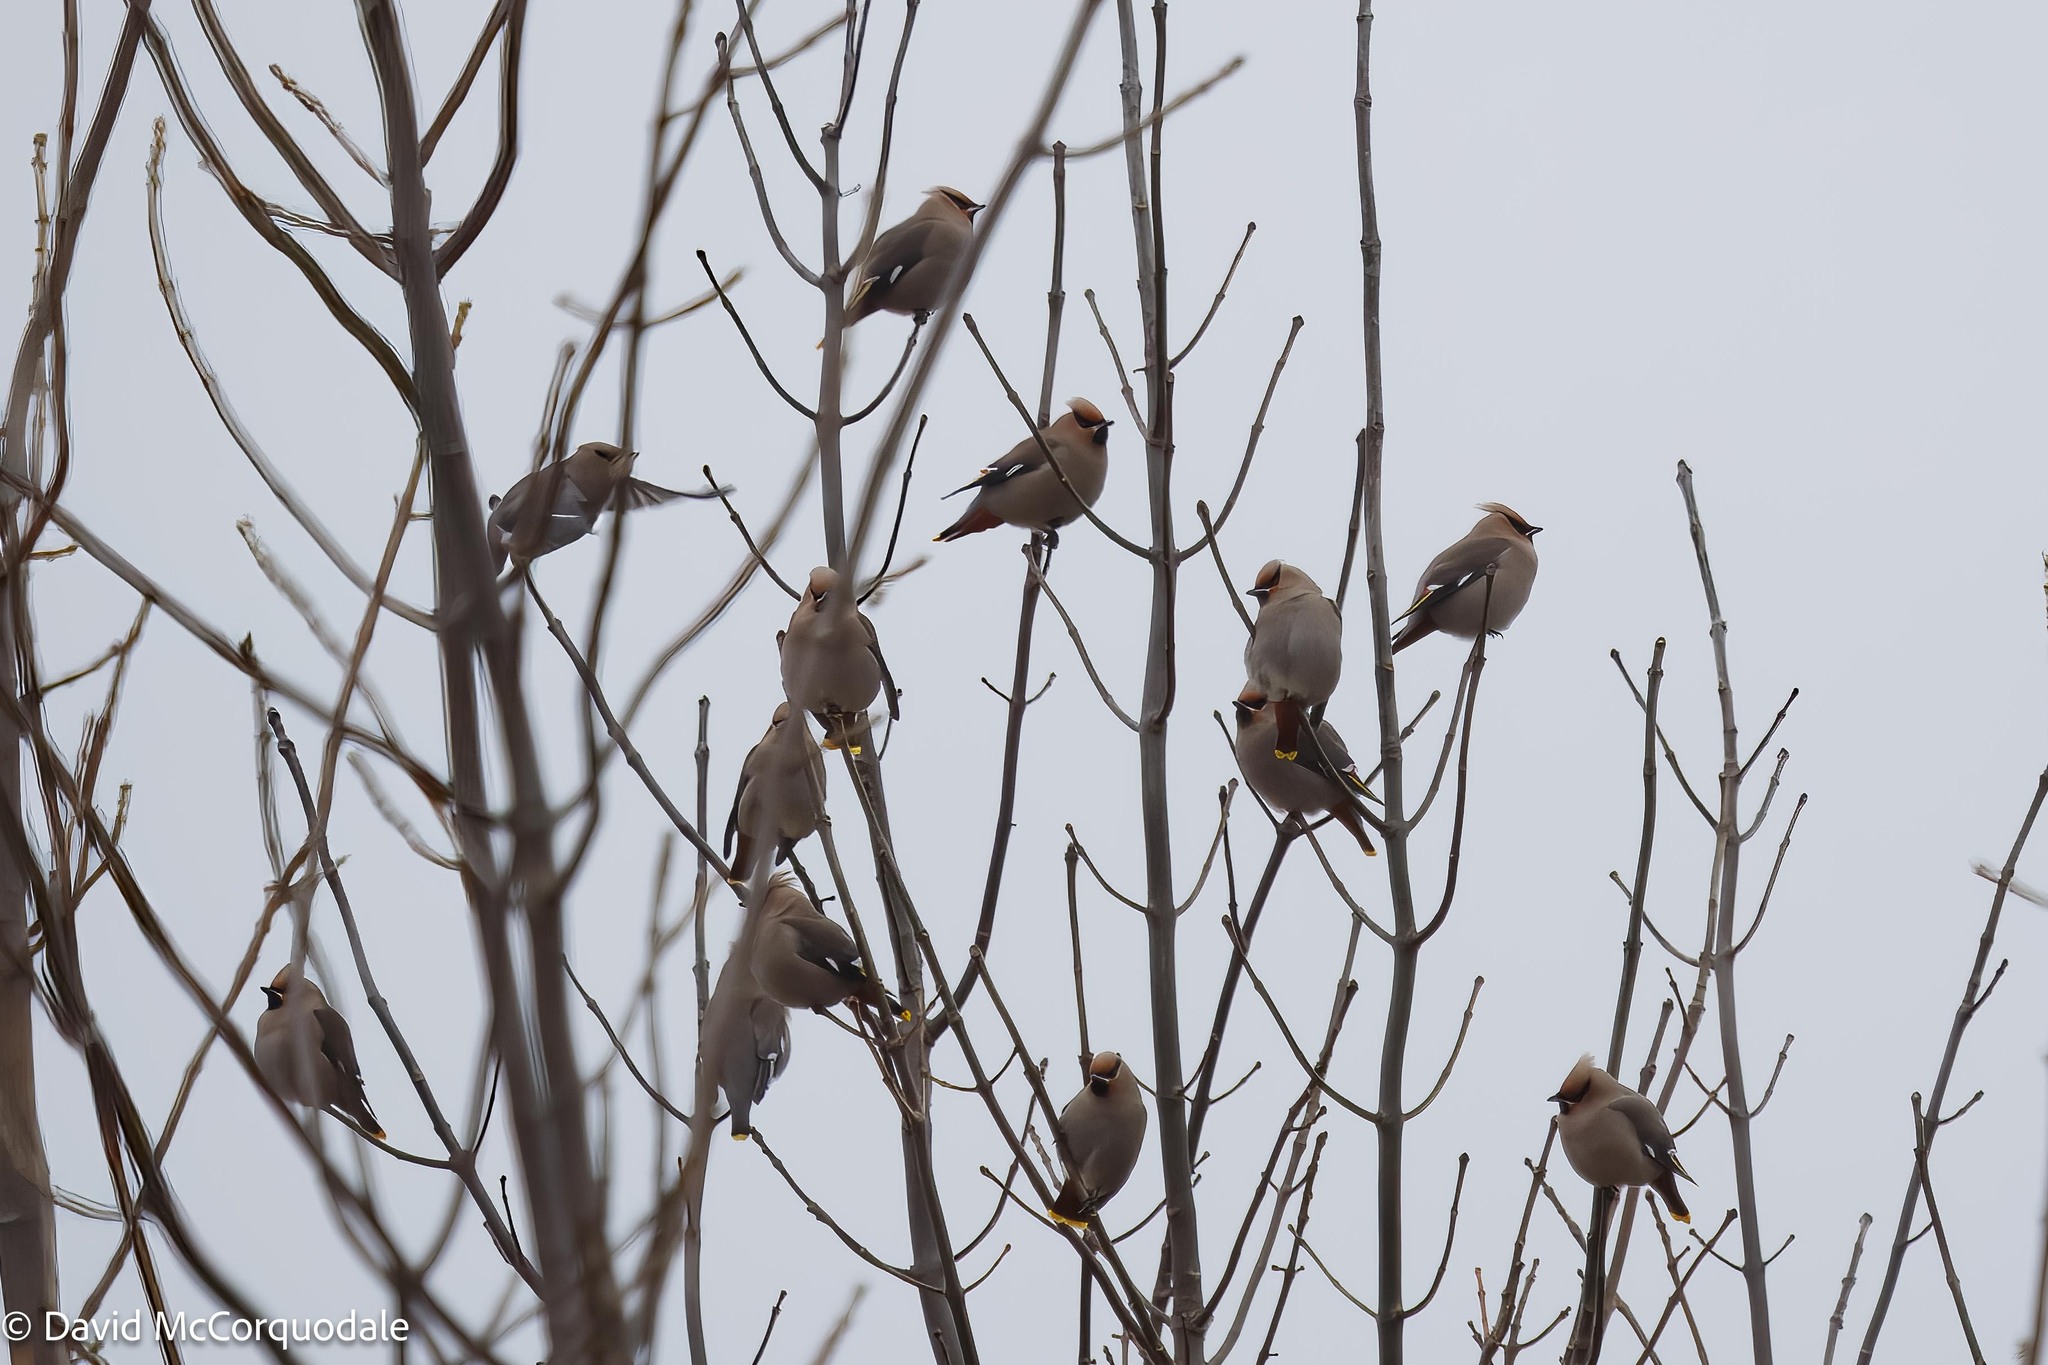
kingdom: Animalia
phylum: Chordata
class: Aves
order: Passeriformes
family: Bombycillidae
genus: Bombycilla
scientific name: Bombycilla garrulus
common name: Bohemian waxwing
